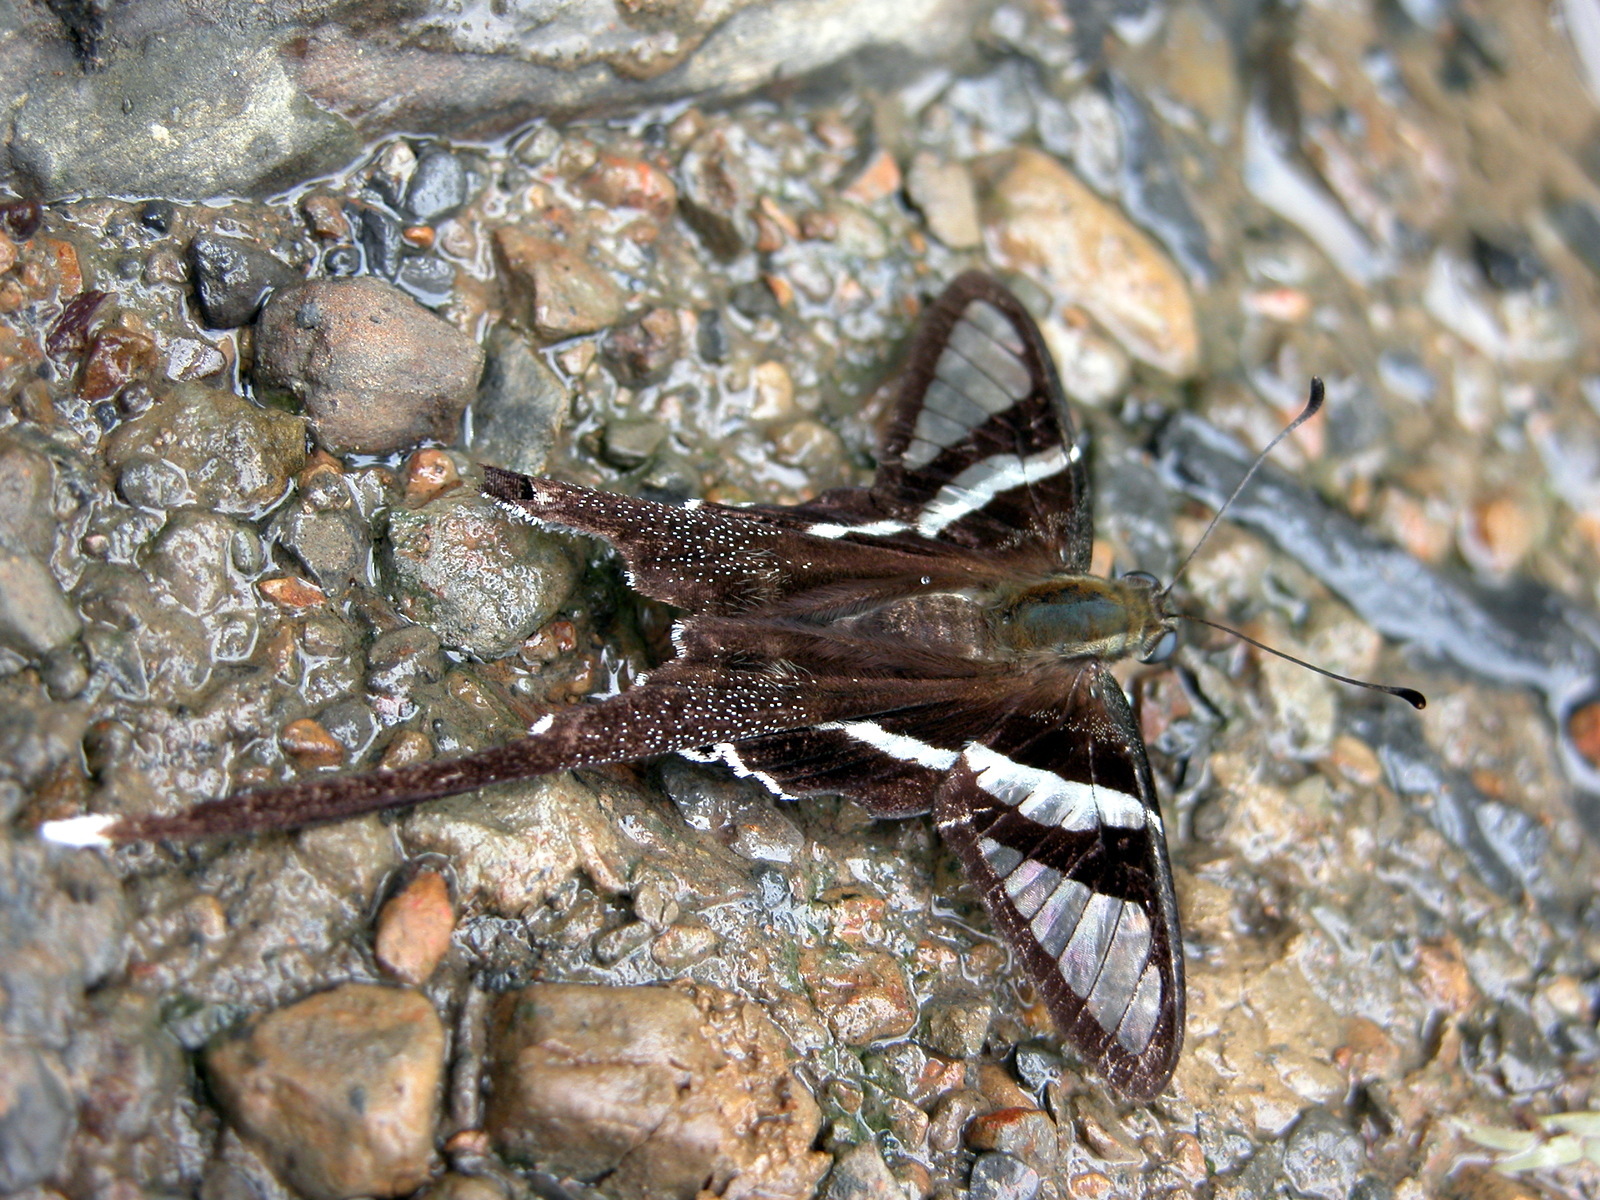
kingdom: Animalia
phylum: Arthropoda
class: Insecta
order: Lepidoptera
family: Papilionidae
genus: Lamproptera
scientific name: Lamproptera curius
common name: White dragontail
